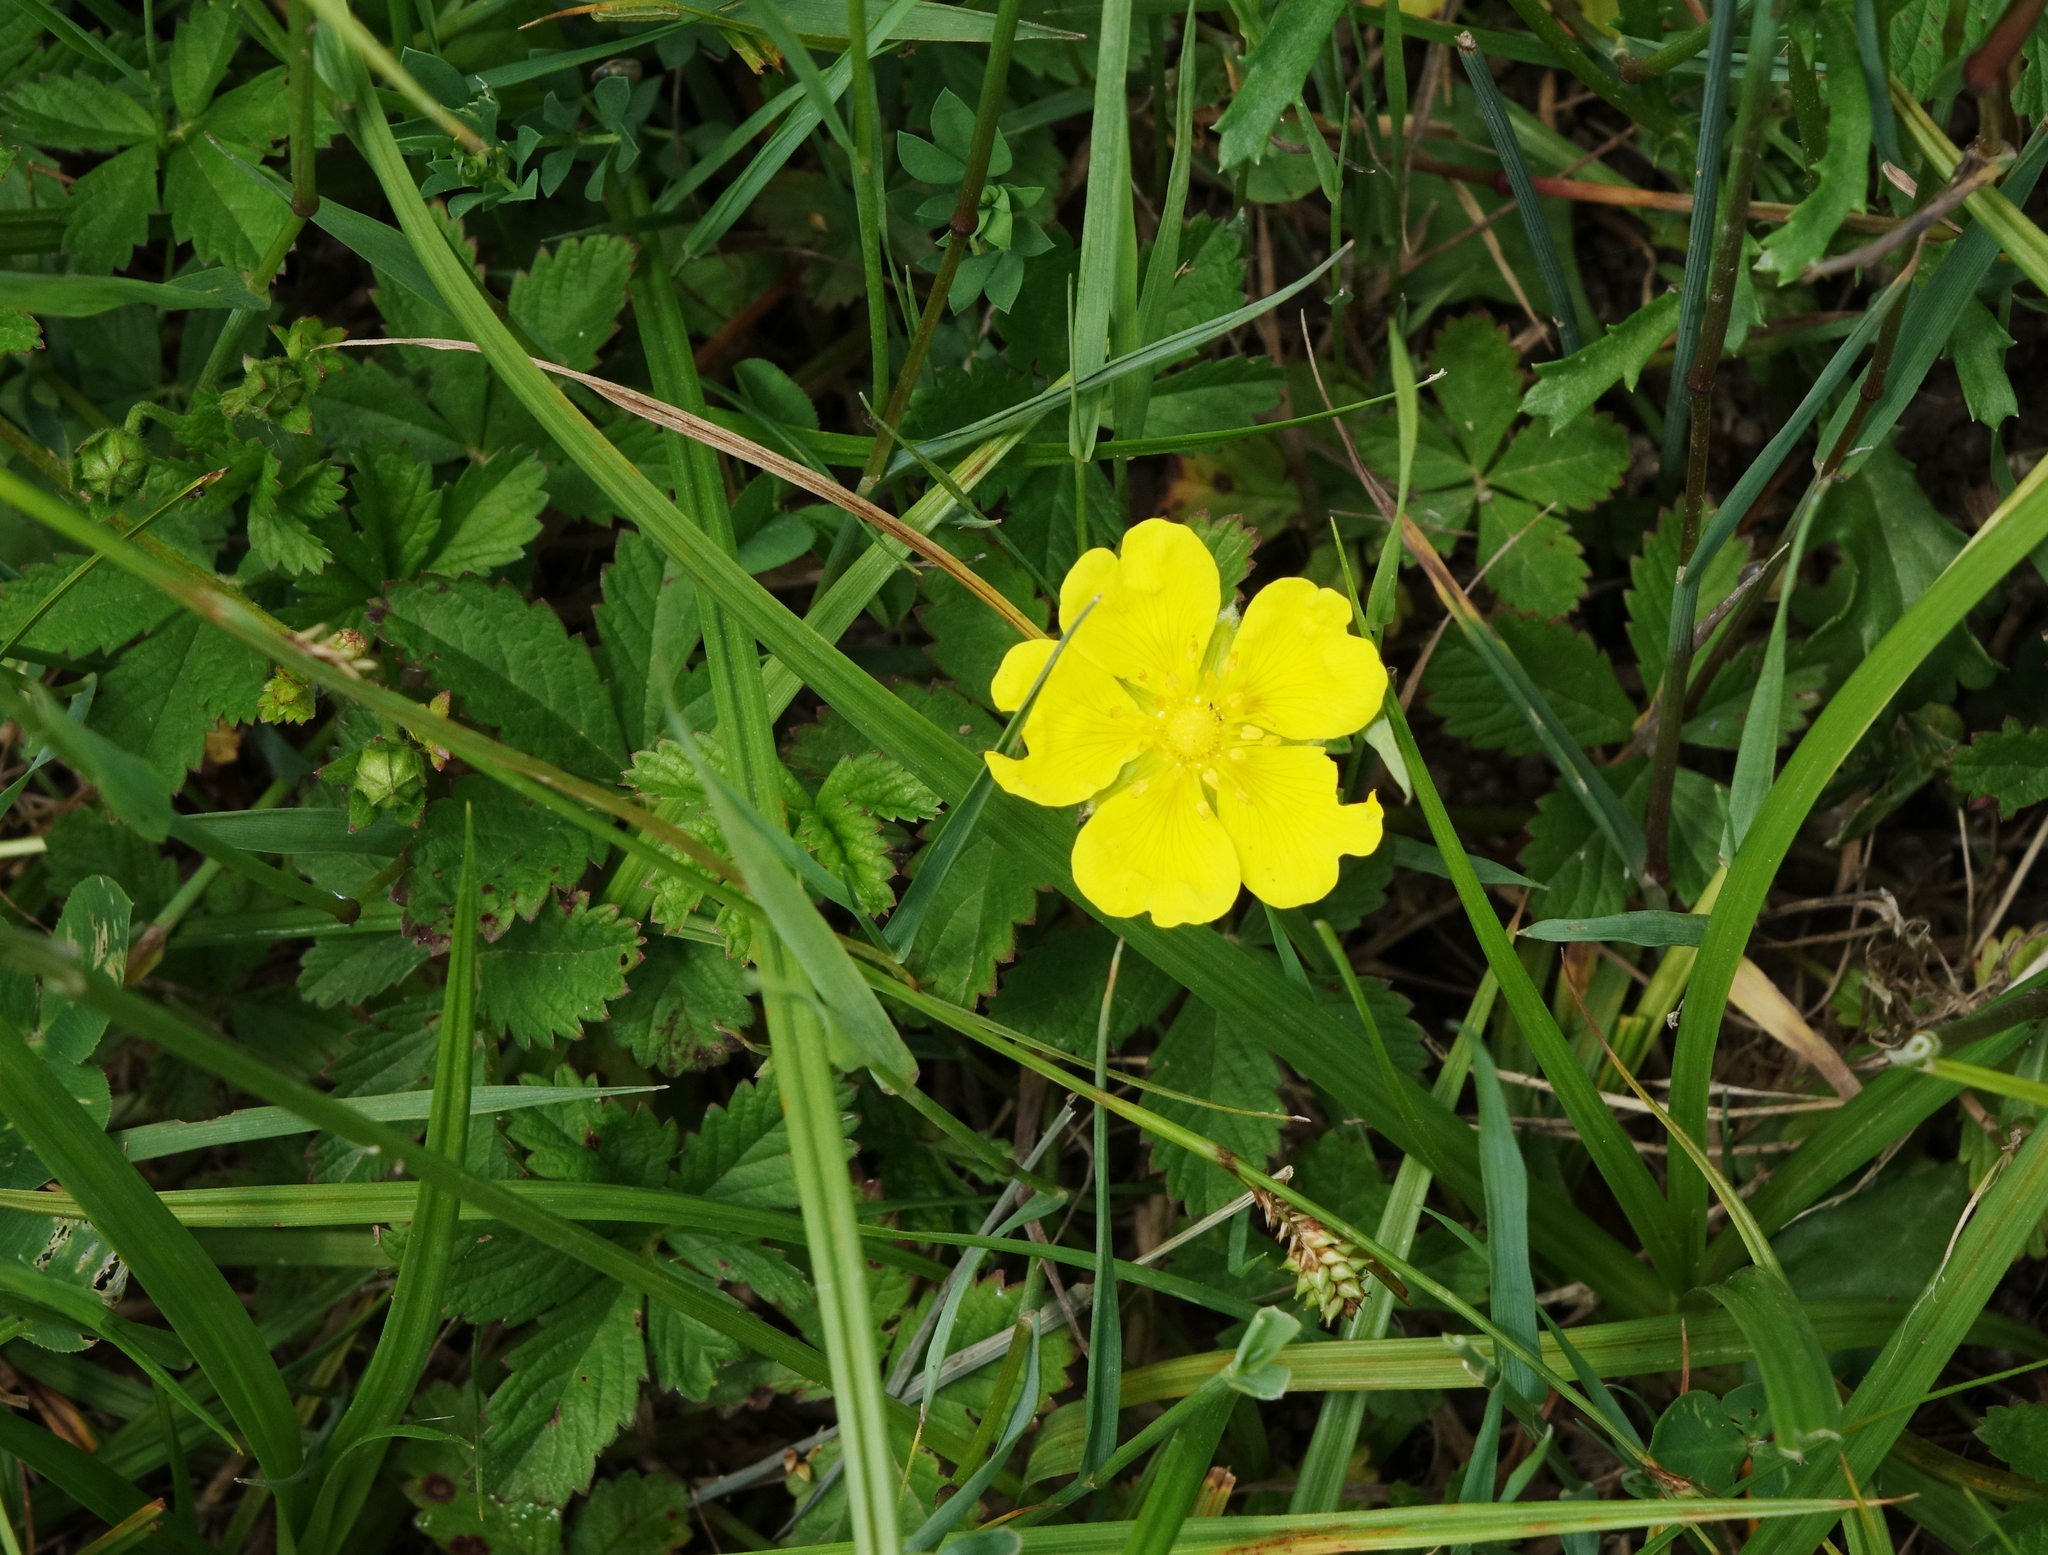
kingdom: Plantae
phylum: Tracheophyta
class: Magnoliopsida
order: Rosales
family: Rosaceae
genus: Potentilla
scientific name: Potentilla reptans
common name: Creeping cinquefoil
